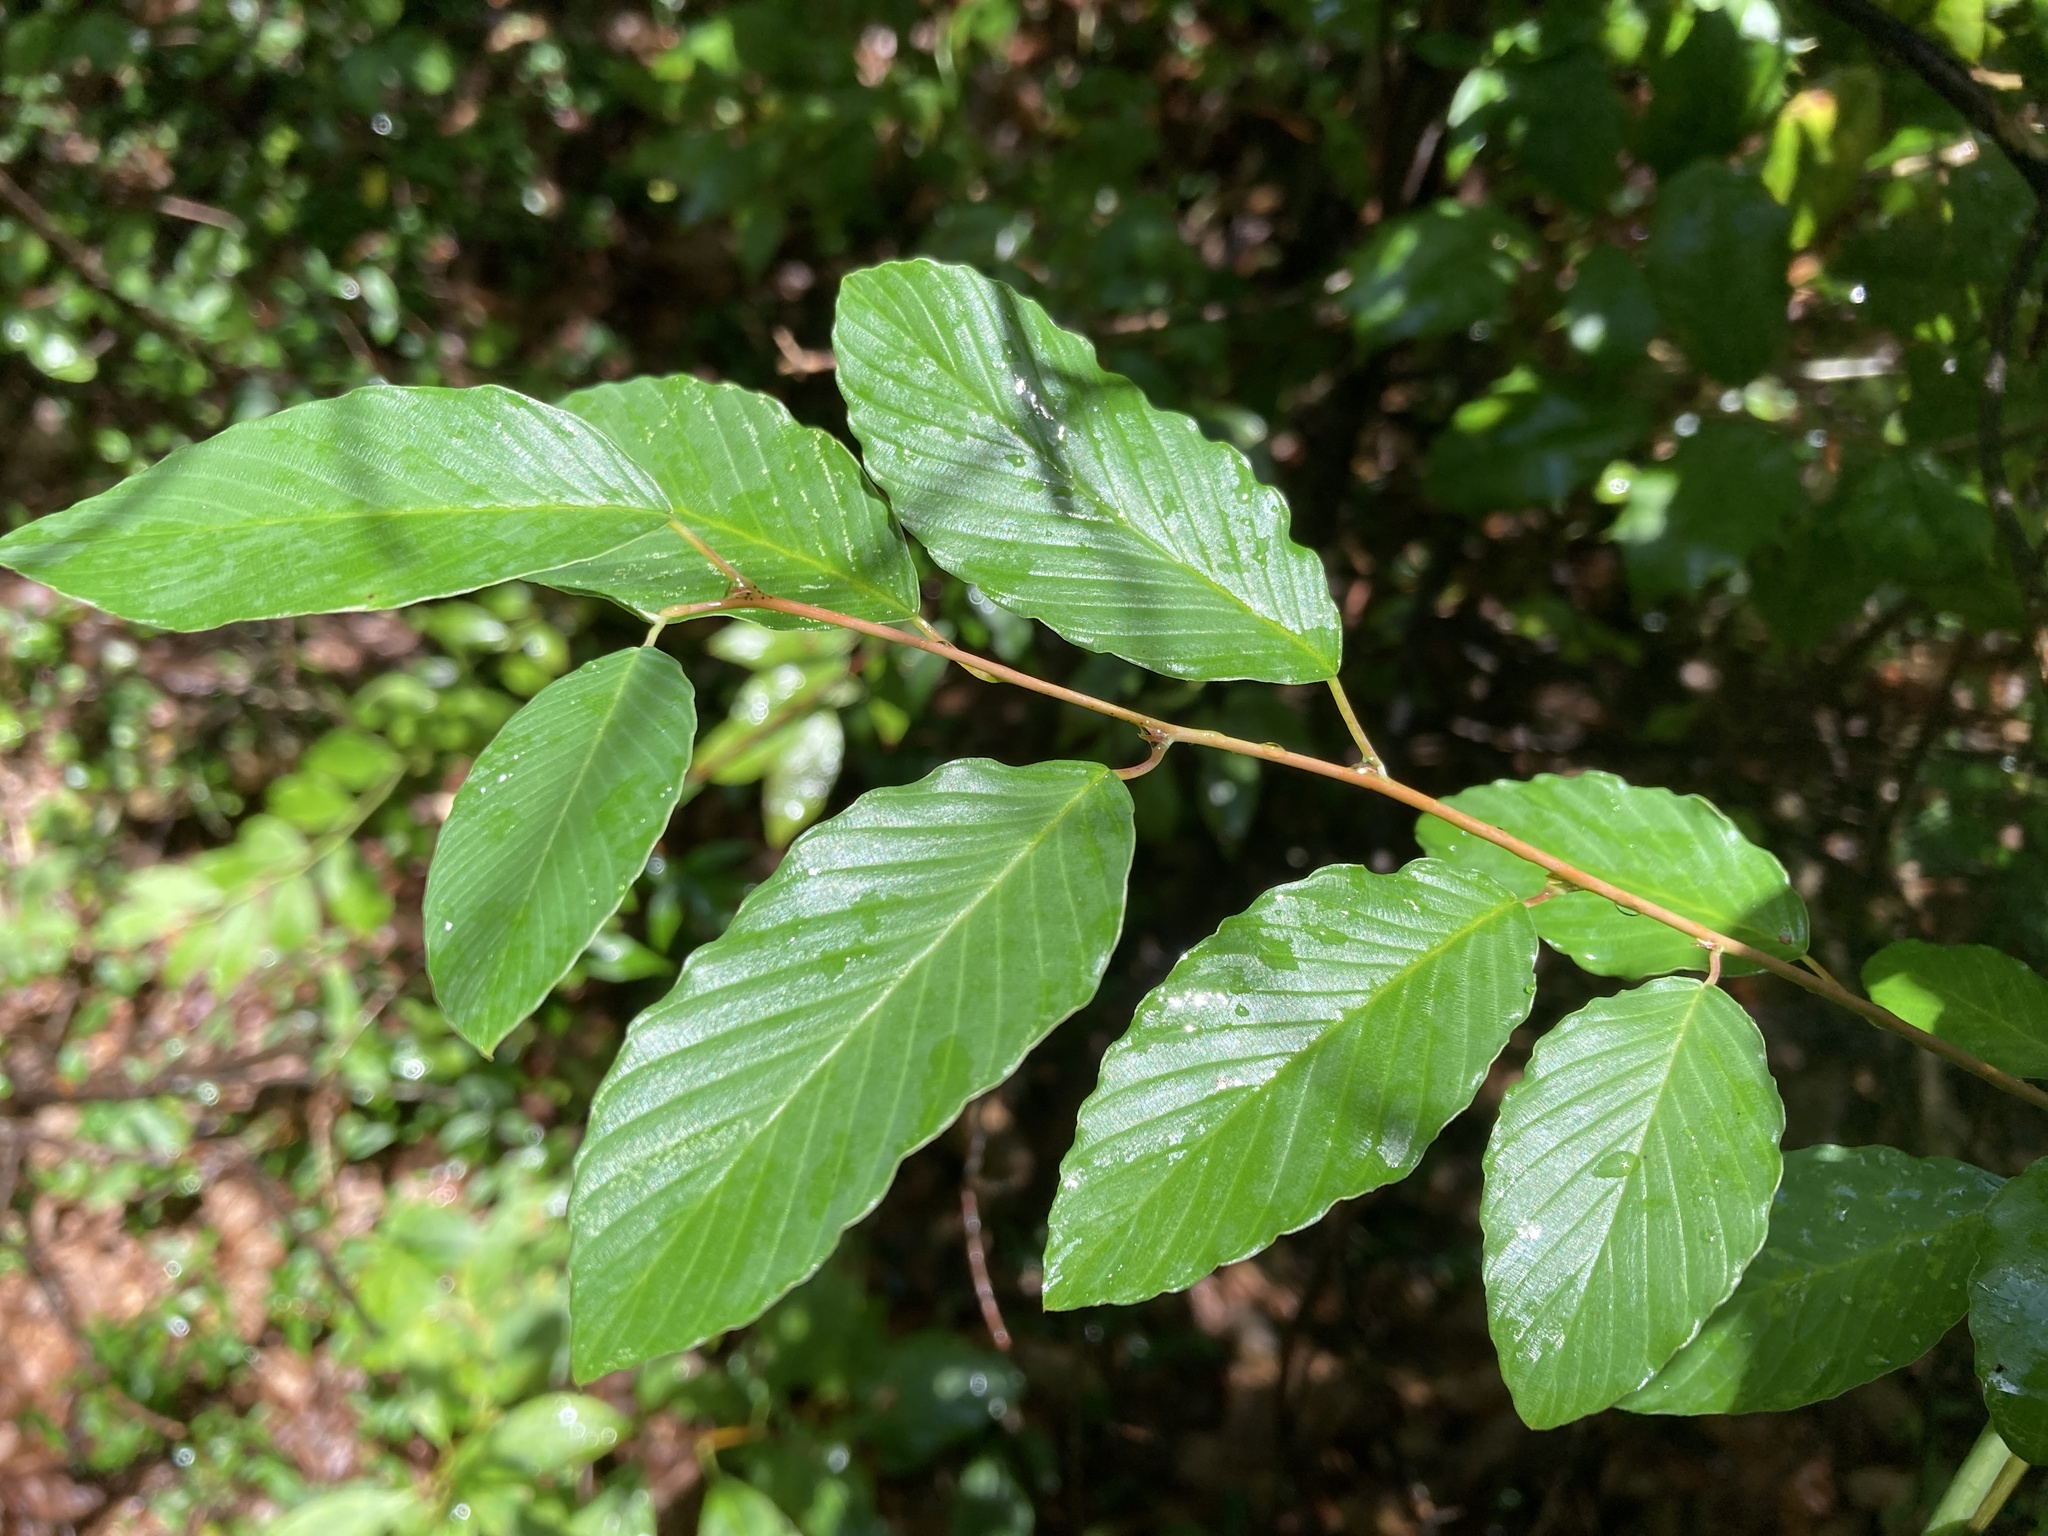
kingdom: Plantae
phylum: Tracheophyta
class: Magnoliopsida
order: Rosales
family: Rhamnaceae
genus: Berchemia
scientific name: Berchemia scandens
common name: Supplejack
